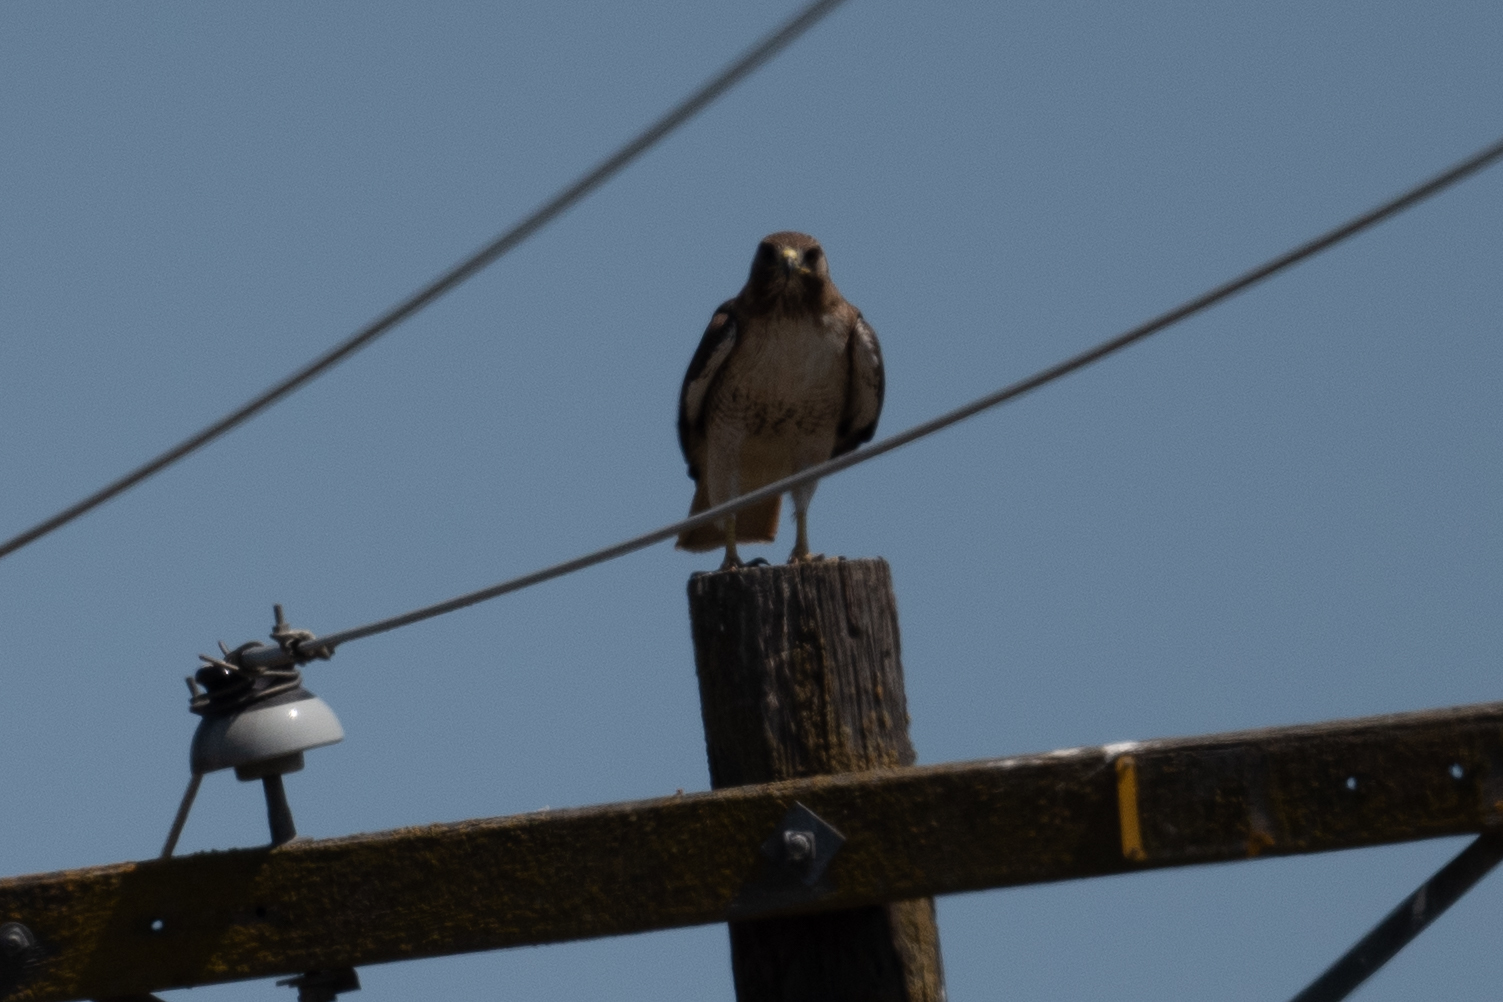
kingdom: Animalia
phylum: Chordata
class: Aves
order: Accipitriformes
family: Accipitridae
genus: Buteo
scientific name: Buteo jamaicensis
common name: Red-tailed hawk
